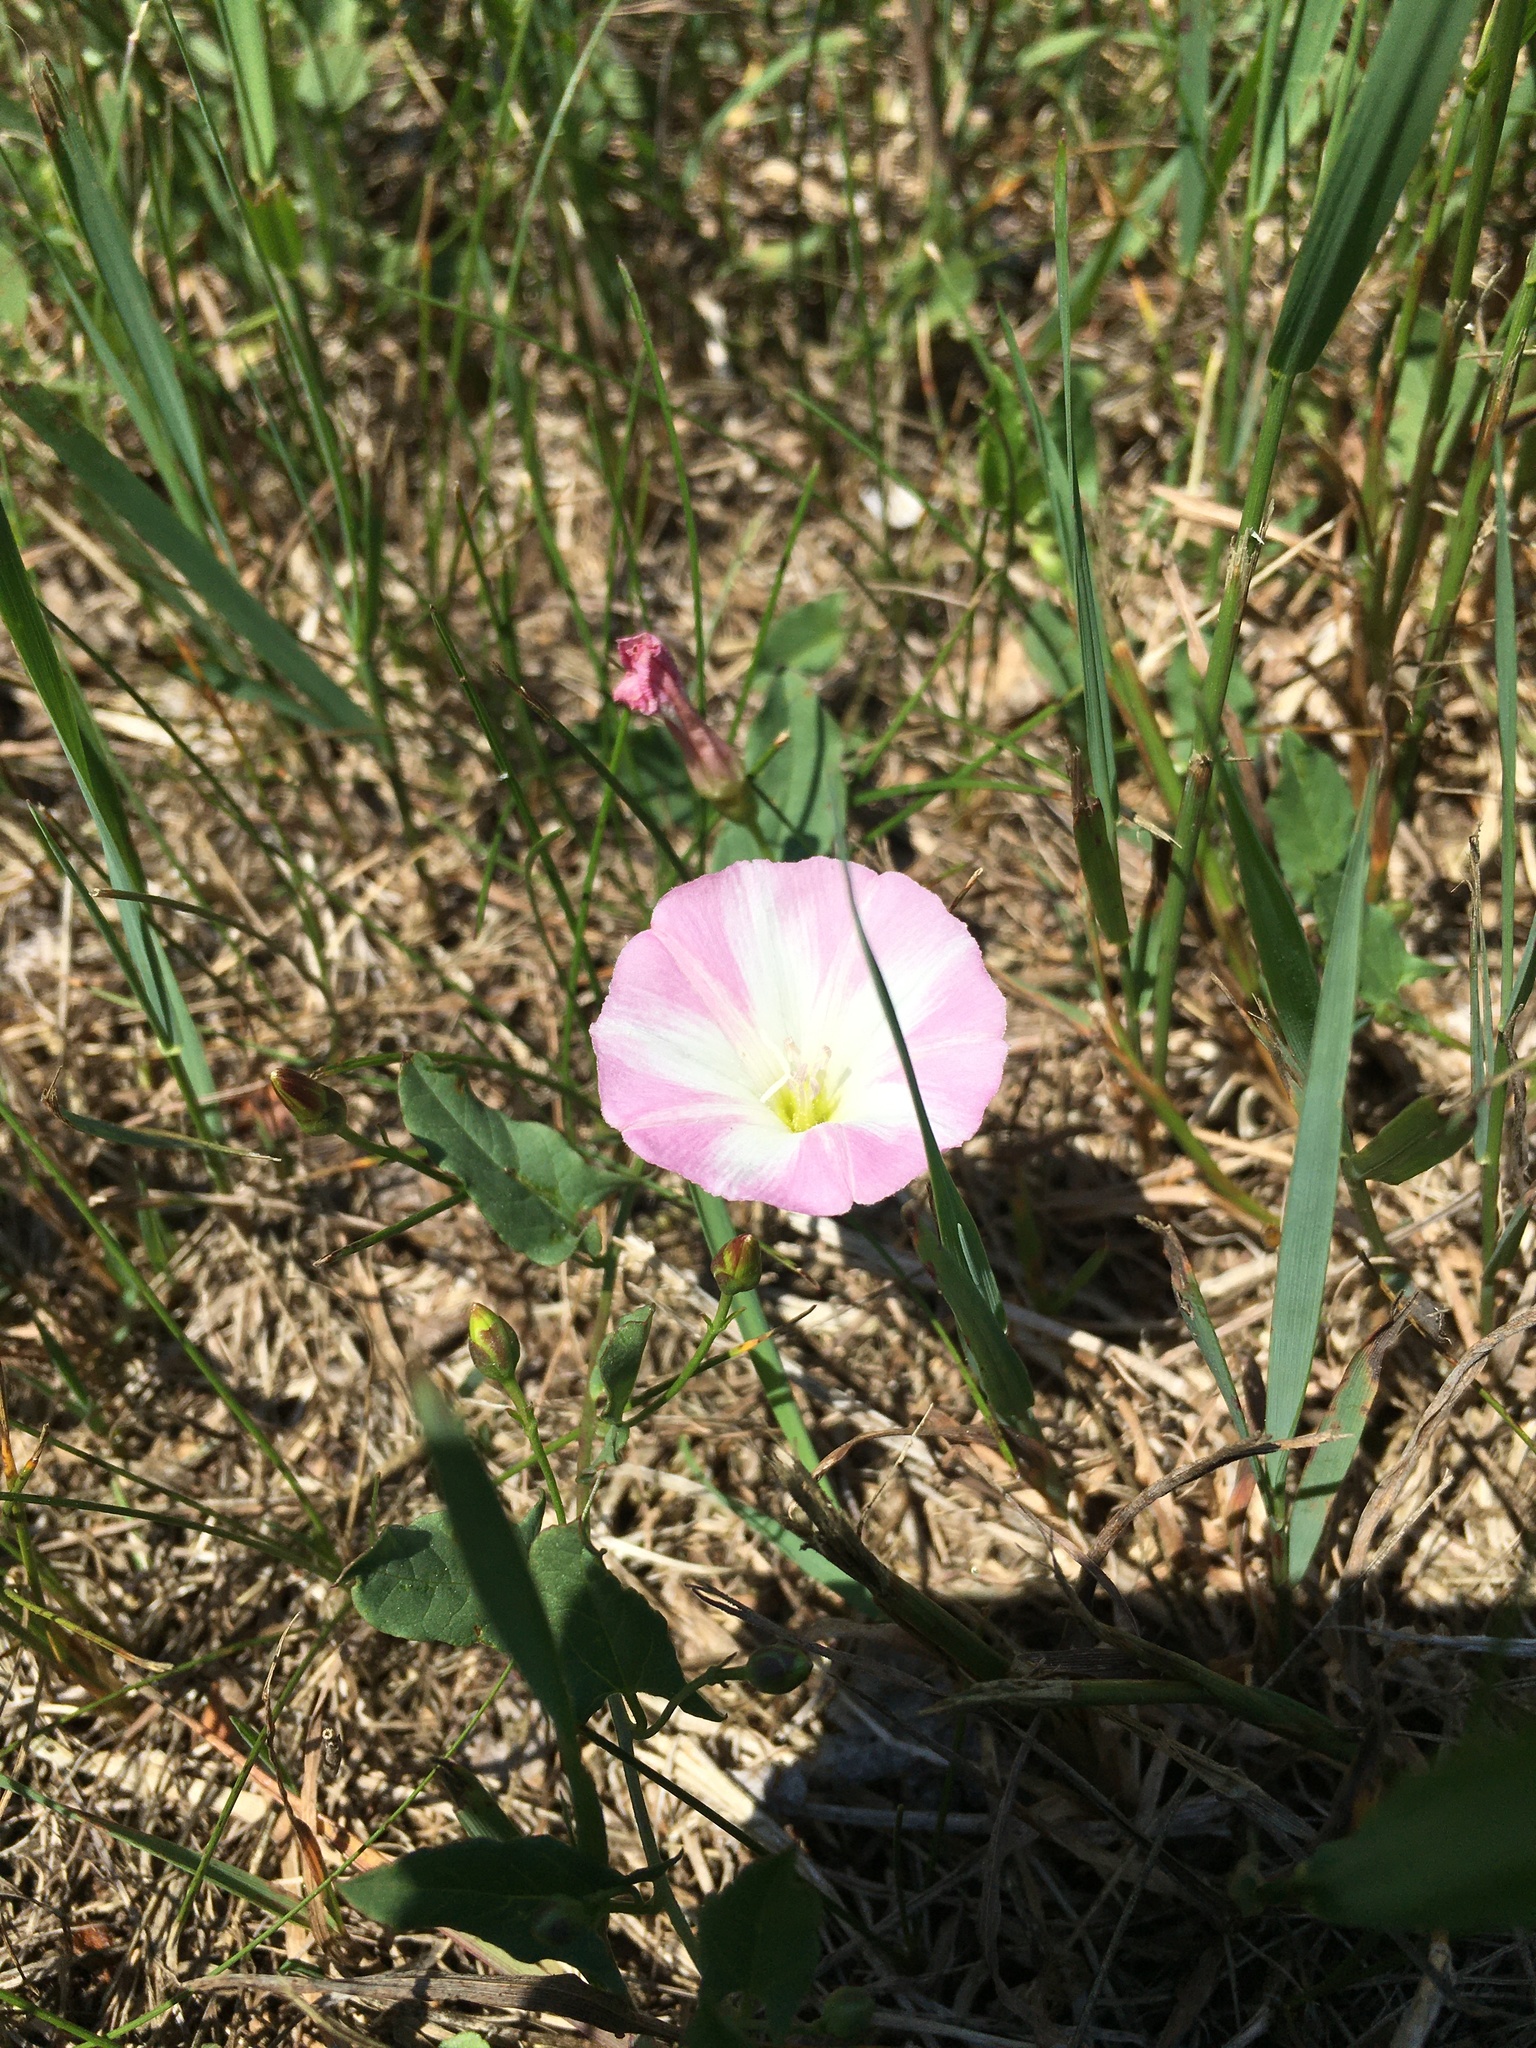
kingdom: Plantae
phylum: Tracheophyta
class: Magnoliopsida
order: Solanales
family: Convolvulaceae
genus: Convolvulus
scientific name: Convolvulus arvensis
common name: Field bindweed
